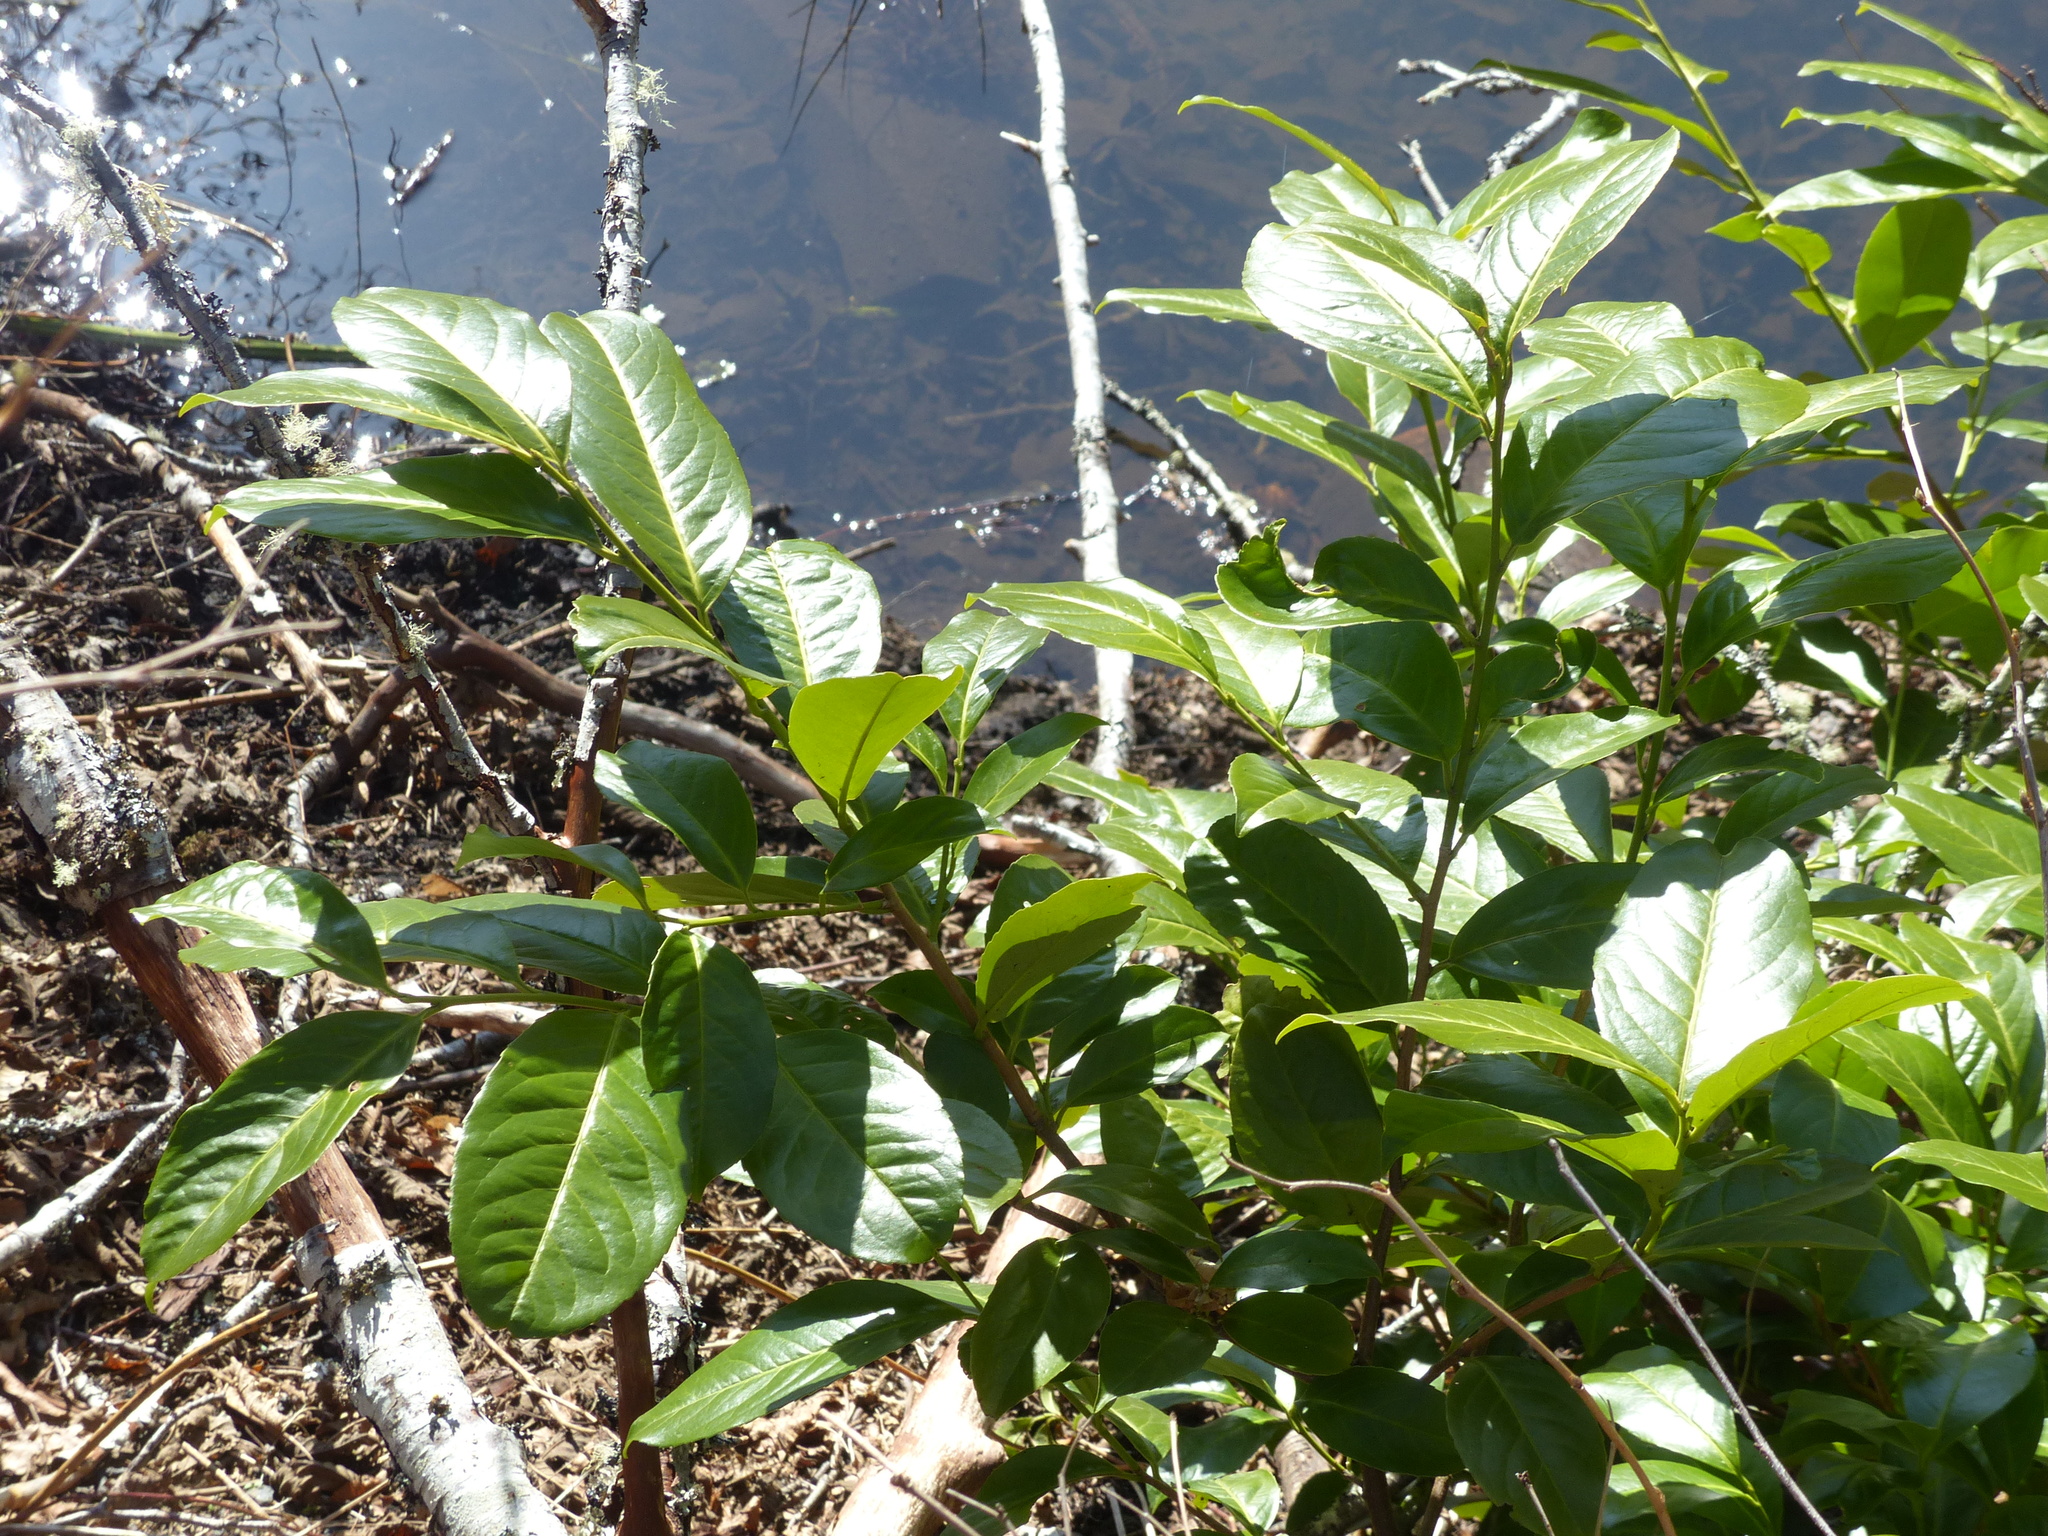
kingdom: Plantae
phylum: Tracheophyta
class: Magnoliopsida
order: Rosales
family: Rosaceae
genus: Prunus
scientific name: Prunus laurocerasus
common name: Cherry laurel
